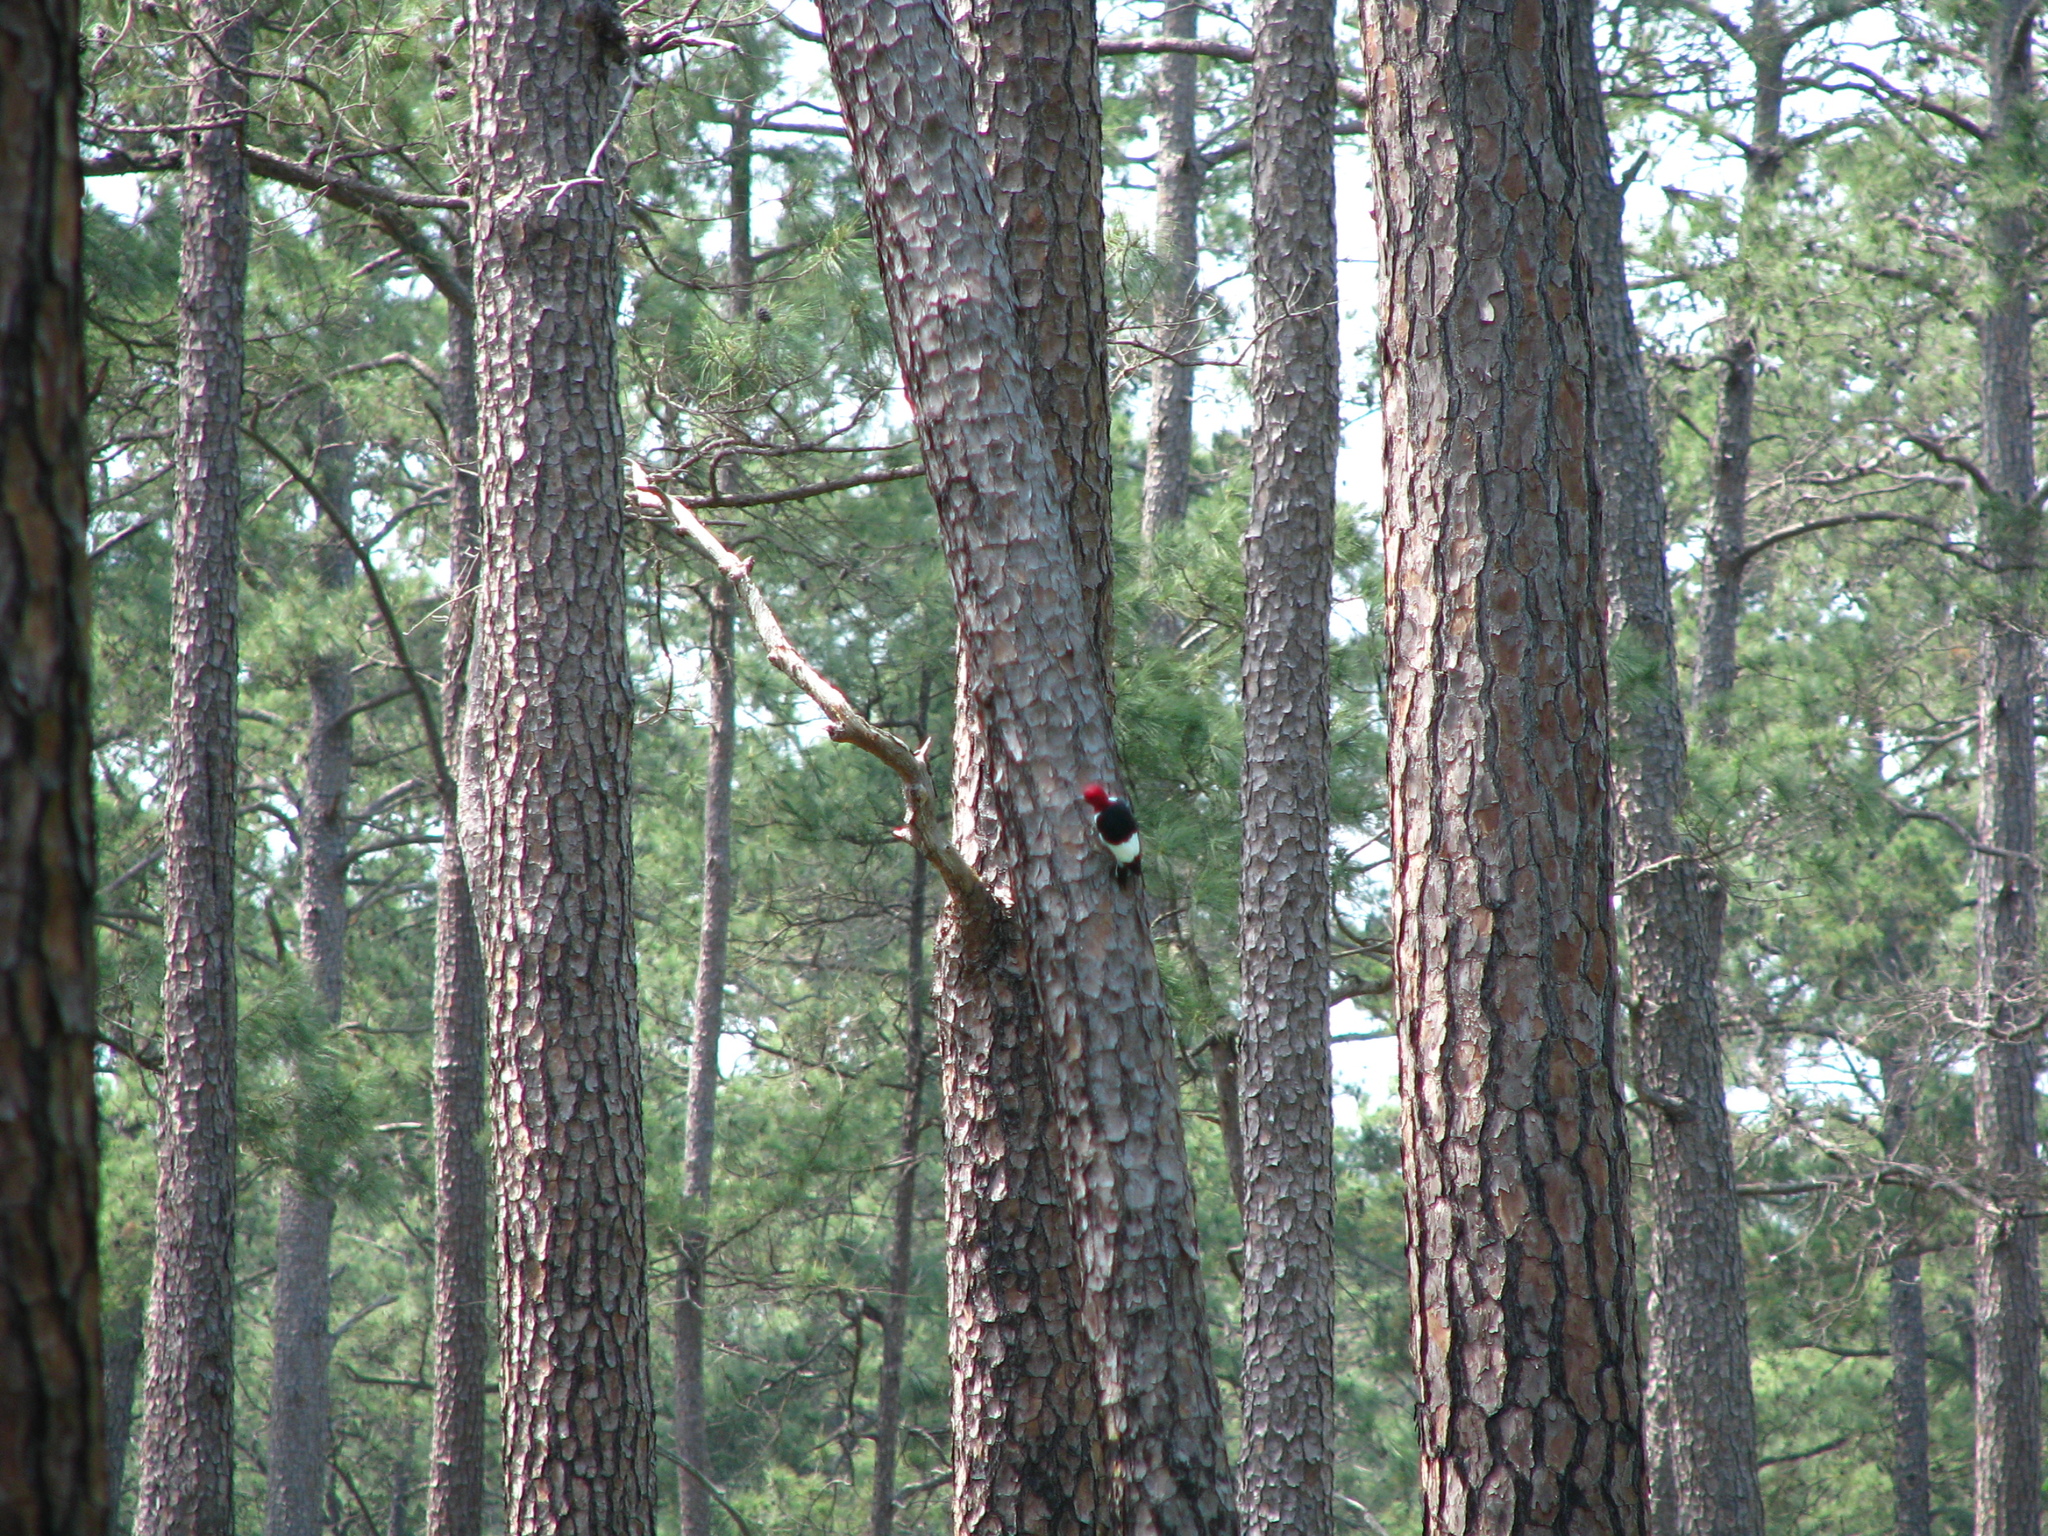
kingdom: Animalia
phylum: Chordata
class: Aves
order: Piciformes
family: Picidae
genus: Melanerpes
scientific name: Melanerpes erythrocephalus
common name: Red-headed woodpecker
